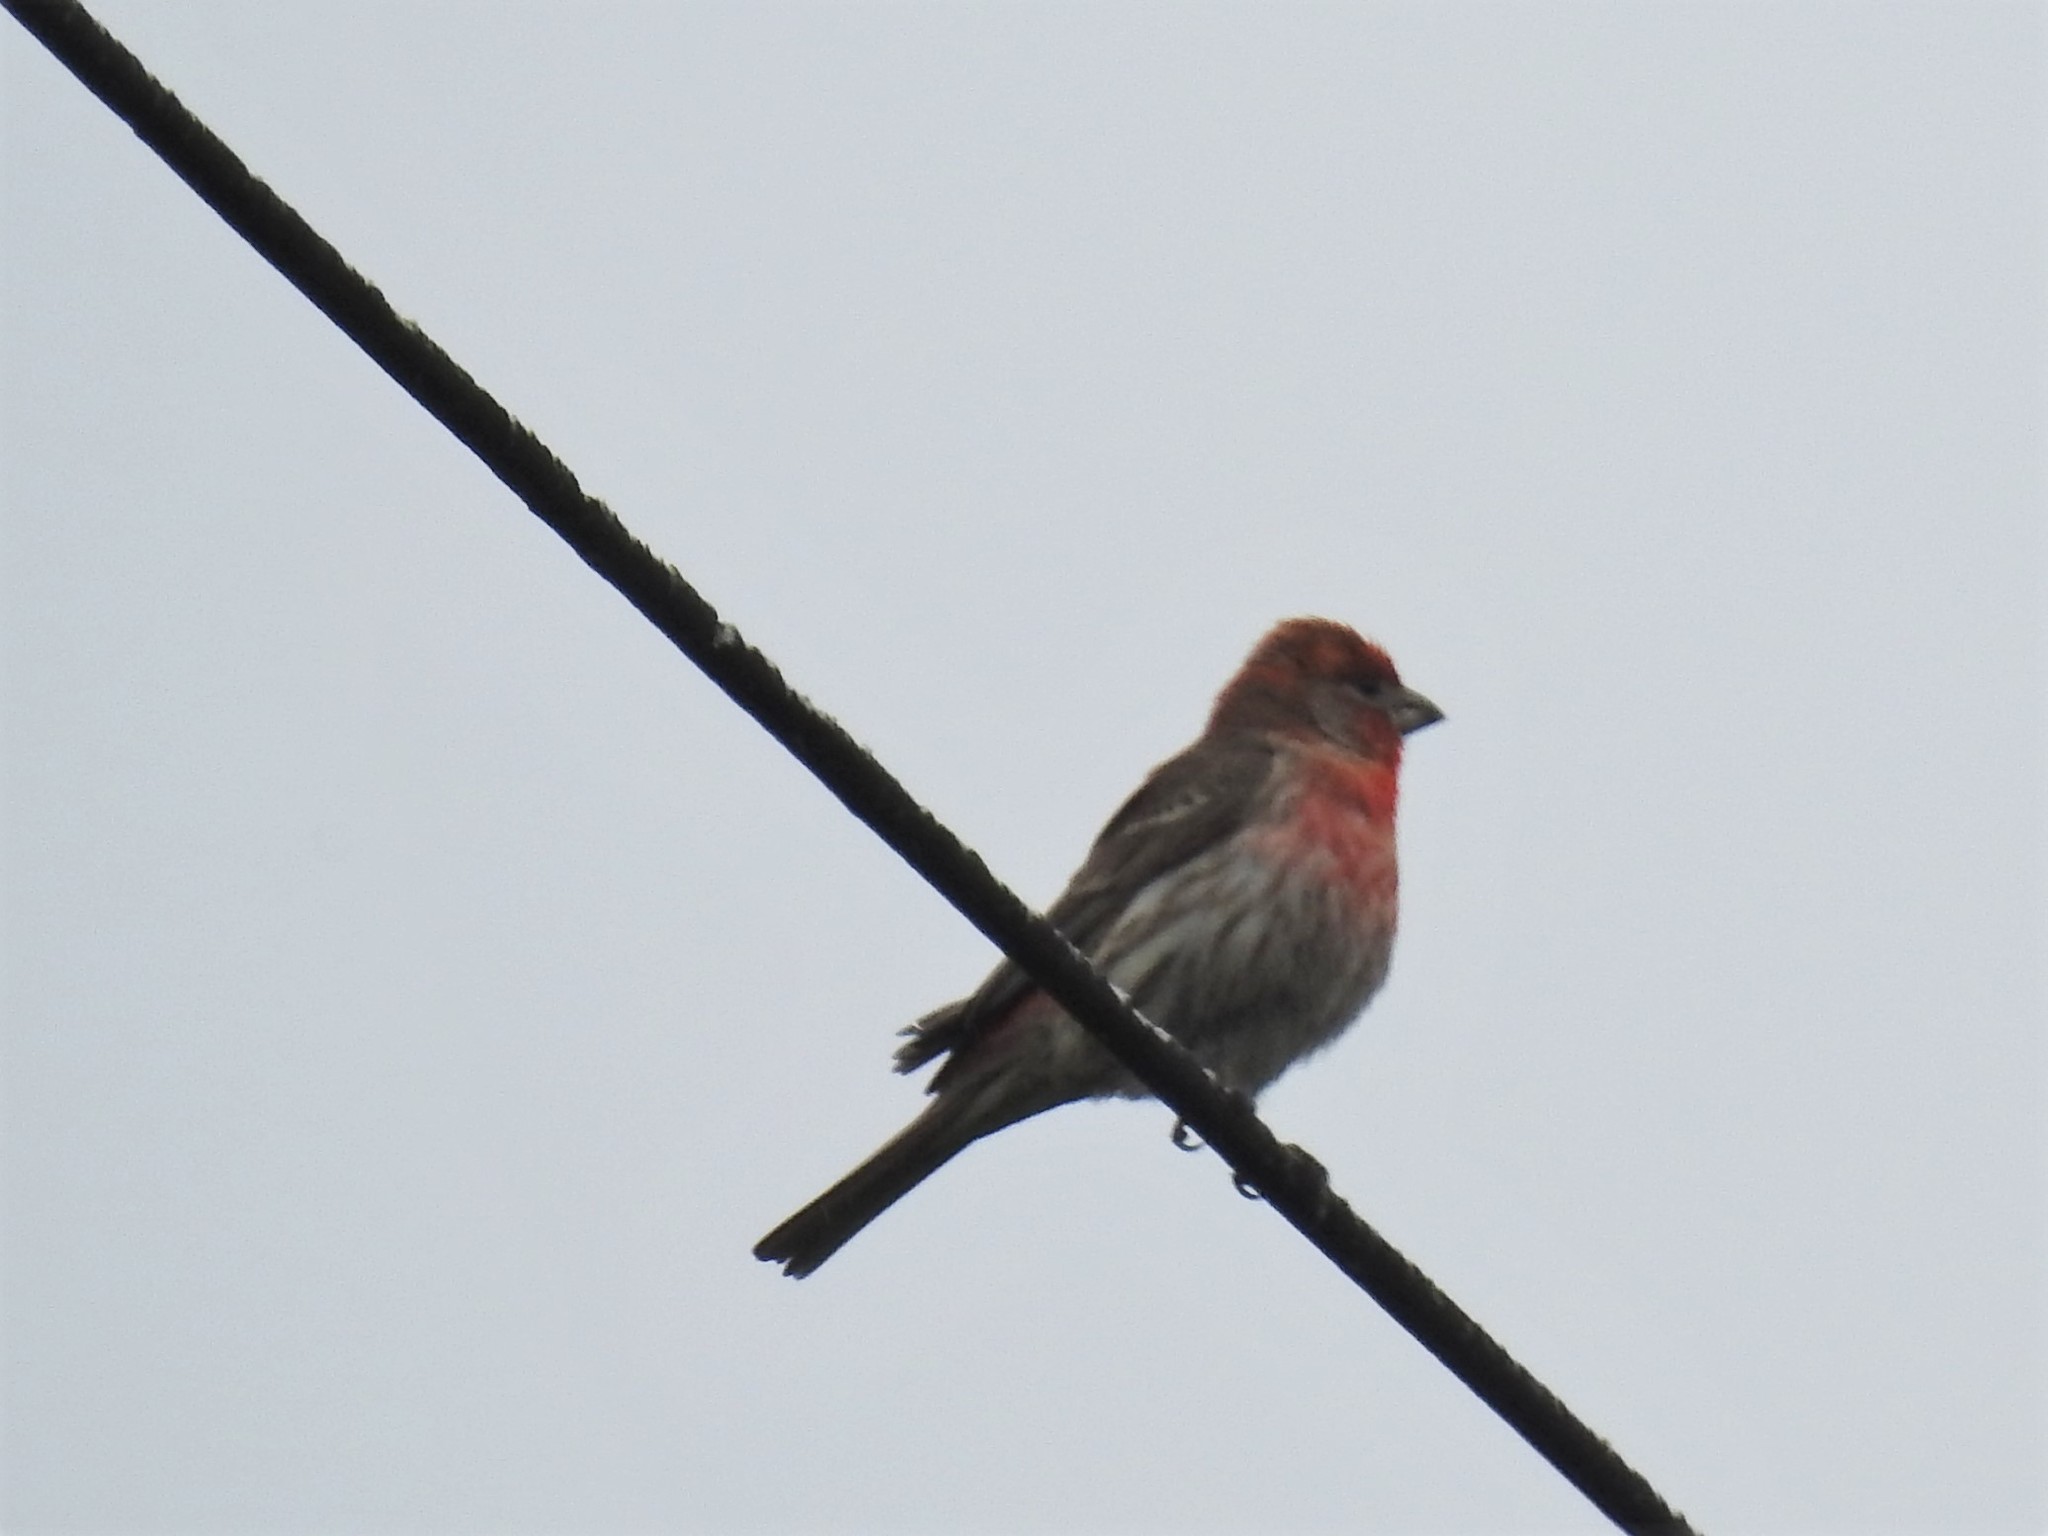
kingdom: Animalia
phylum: Chordata
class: Aves
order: Passeriformes
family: Fringillidae
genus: Haemorhous
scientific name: Haemorhous mexicanus
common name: House finch
